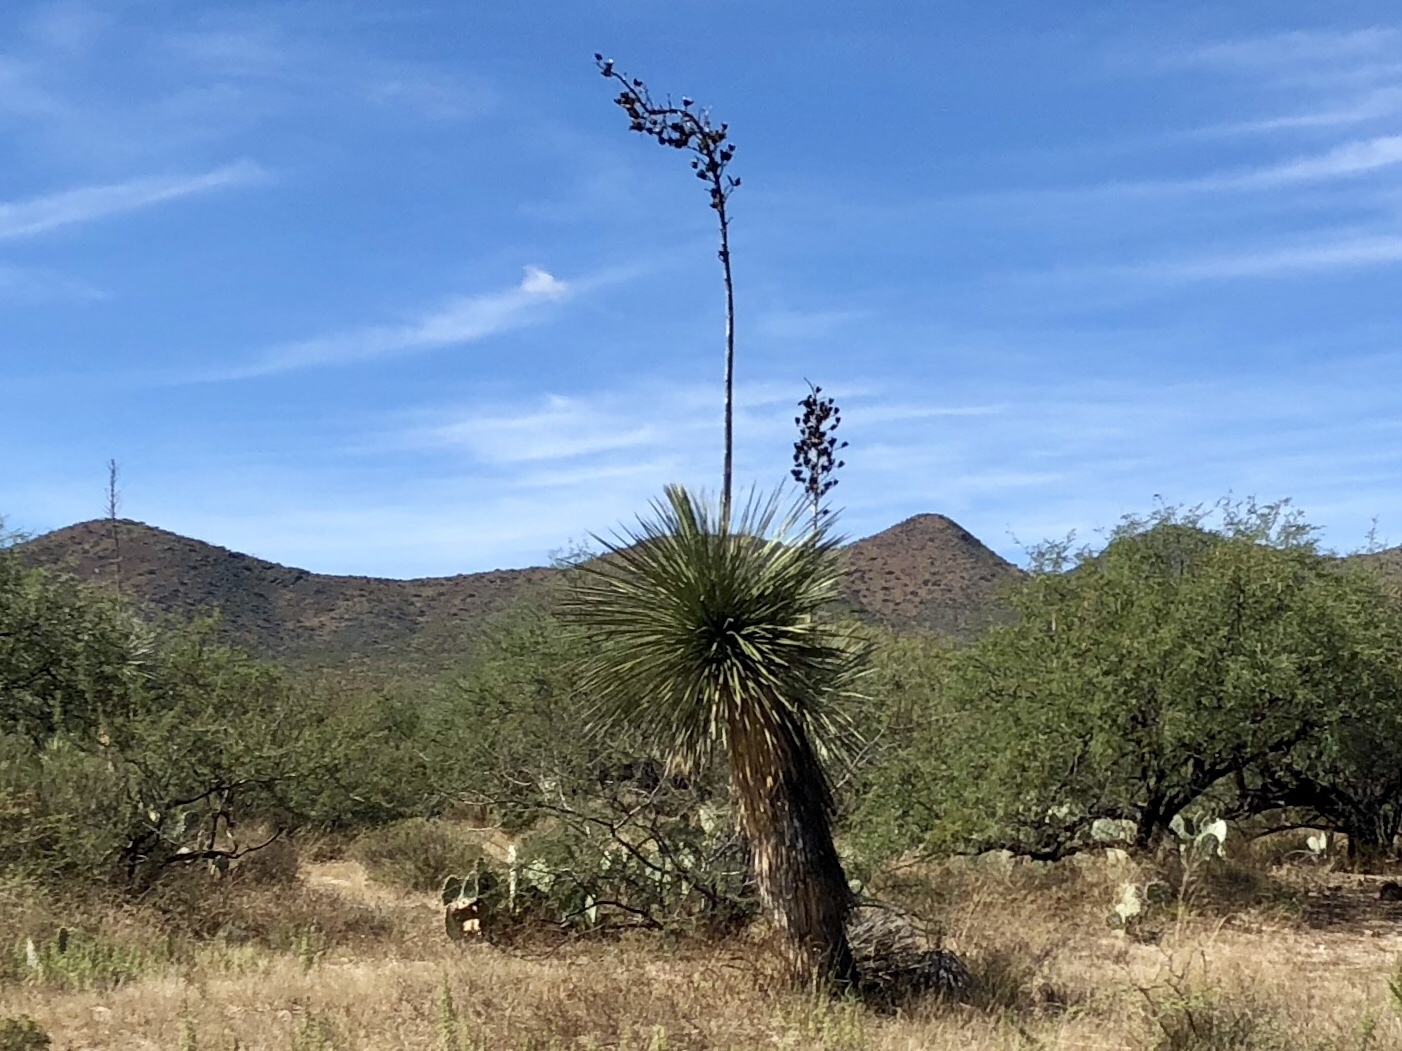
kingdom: Plantae
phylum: Tracheophyta
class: Liliopsida
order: Asparagales
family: Asparagaceae
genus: Yucca
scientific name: Yucca elata
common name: Palmella
